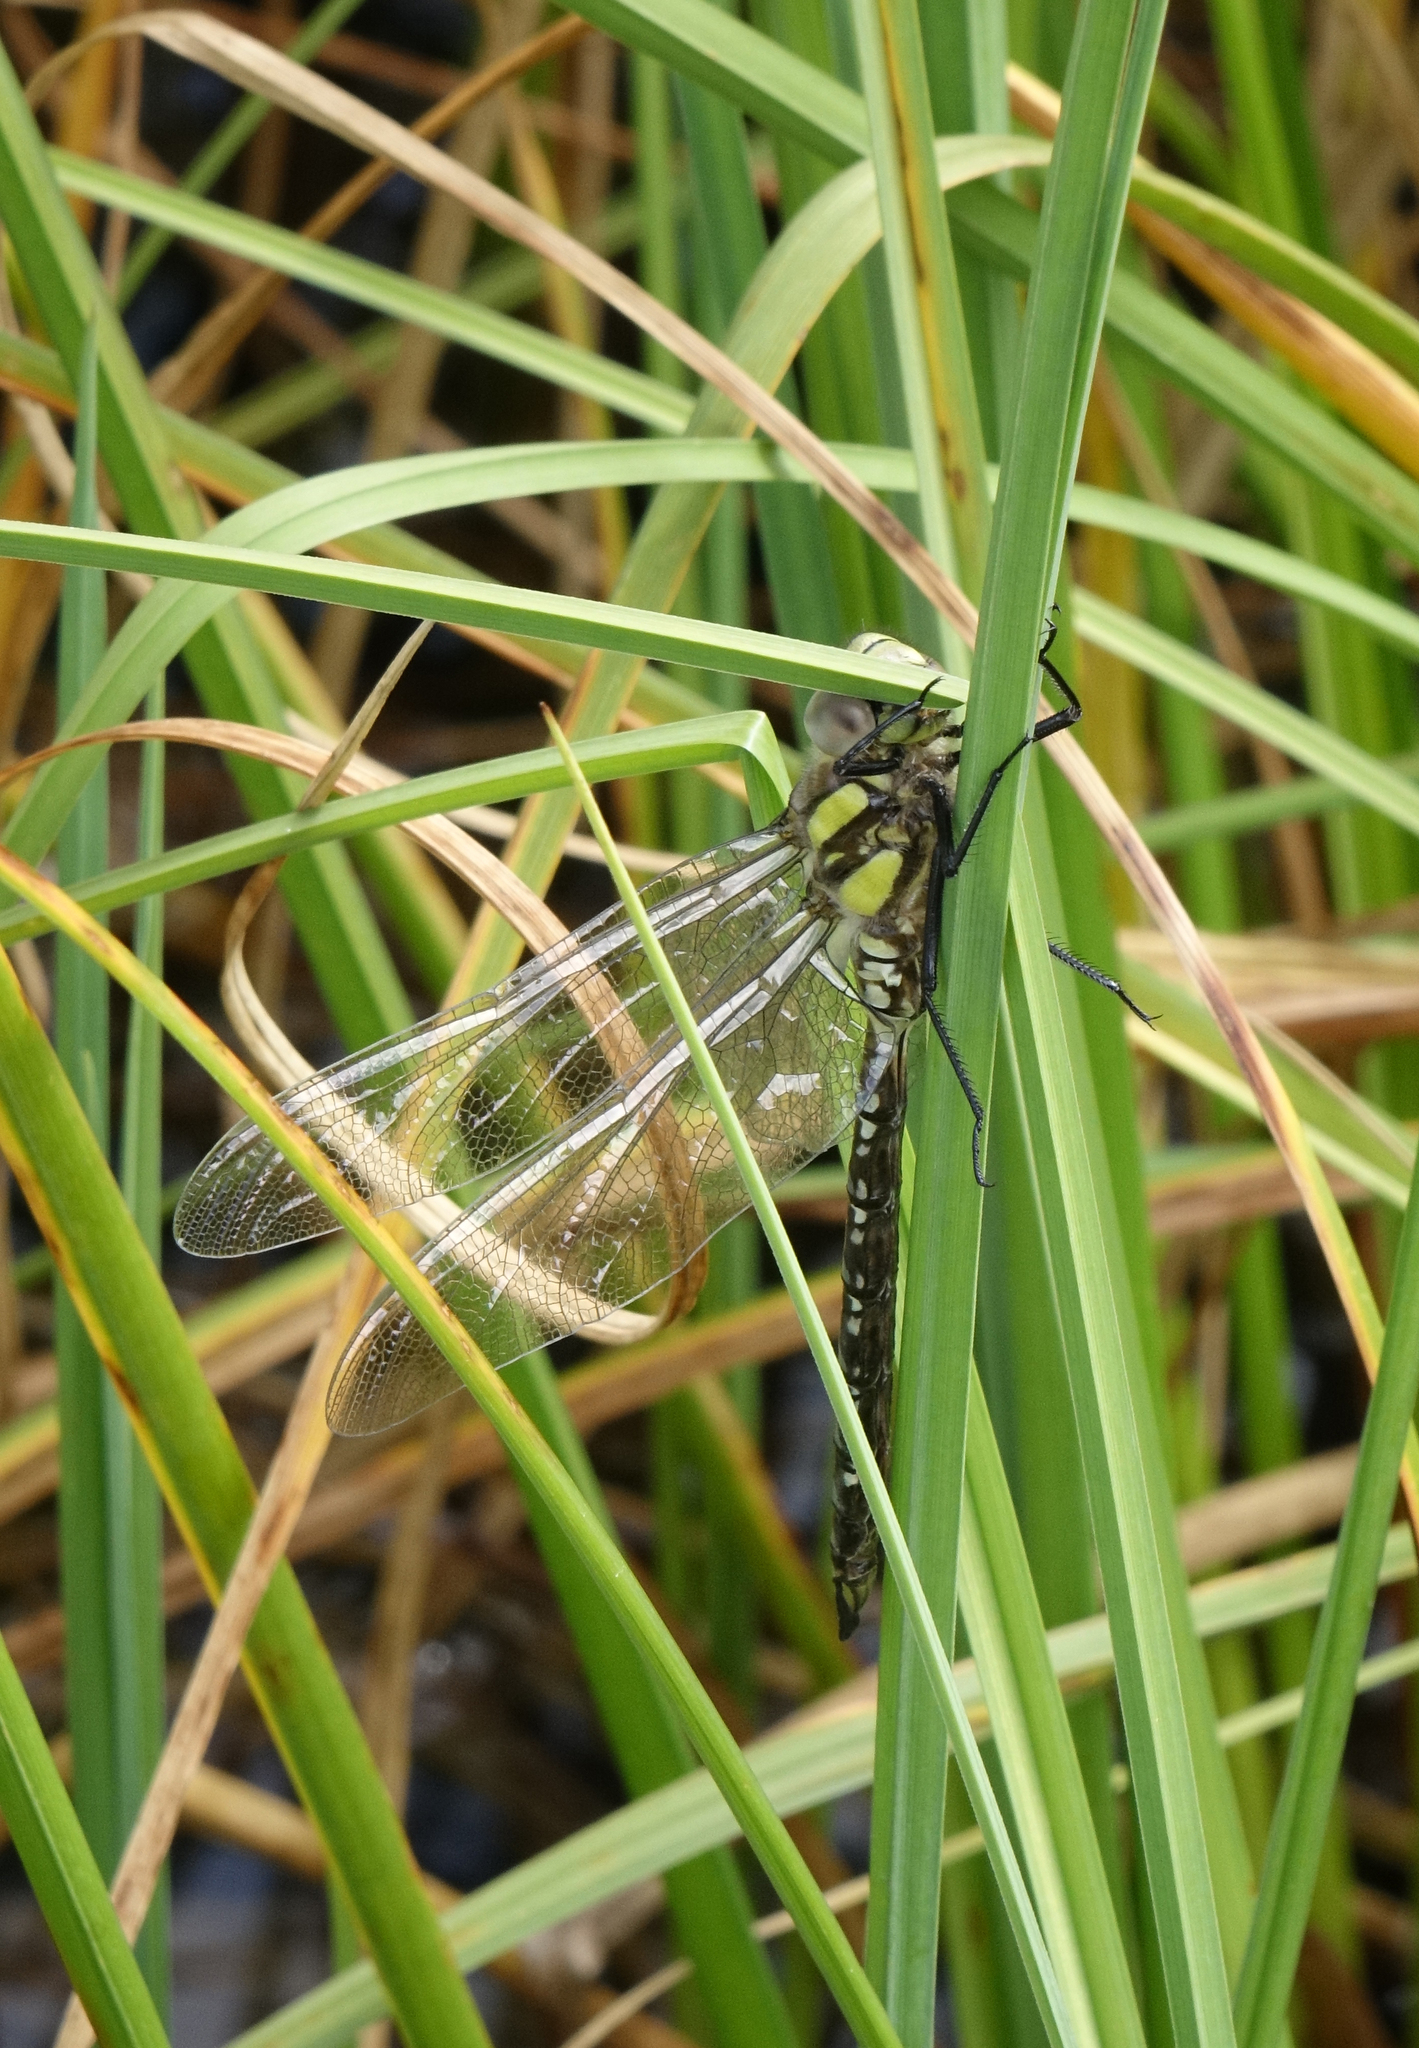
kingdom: Animalia
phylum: Arthropoda
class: Insecta
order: Odonata
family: Aeshnidae
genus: Aeshna
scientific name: Aeshna juncea
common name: Moorland hawker
